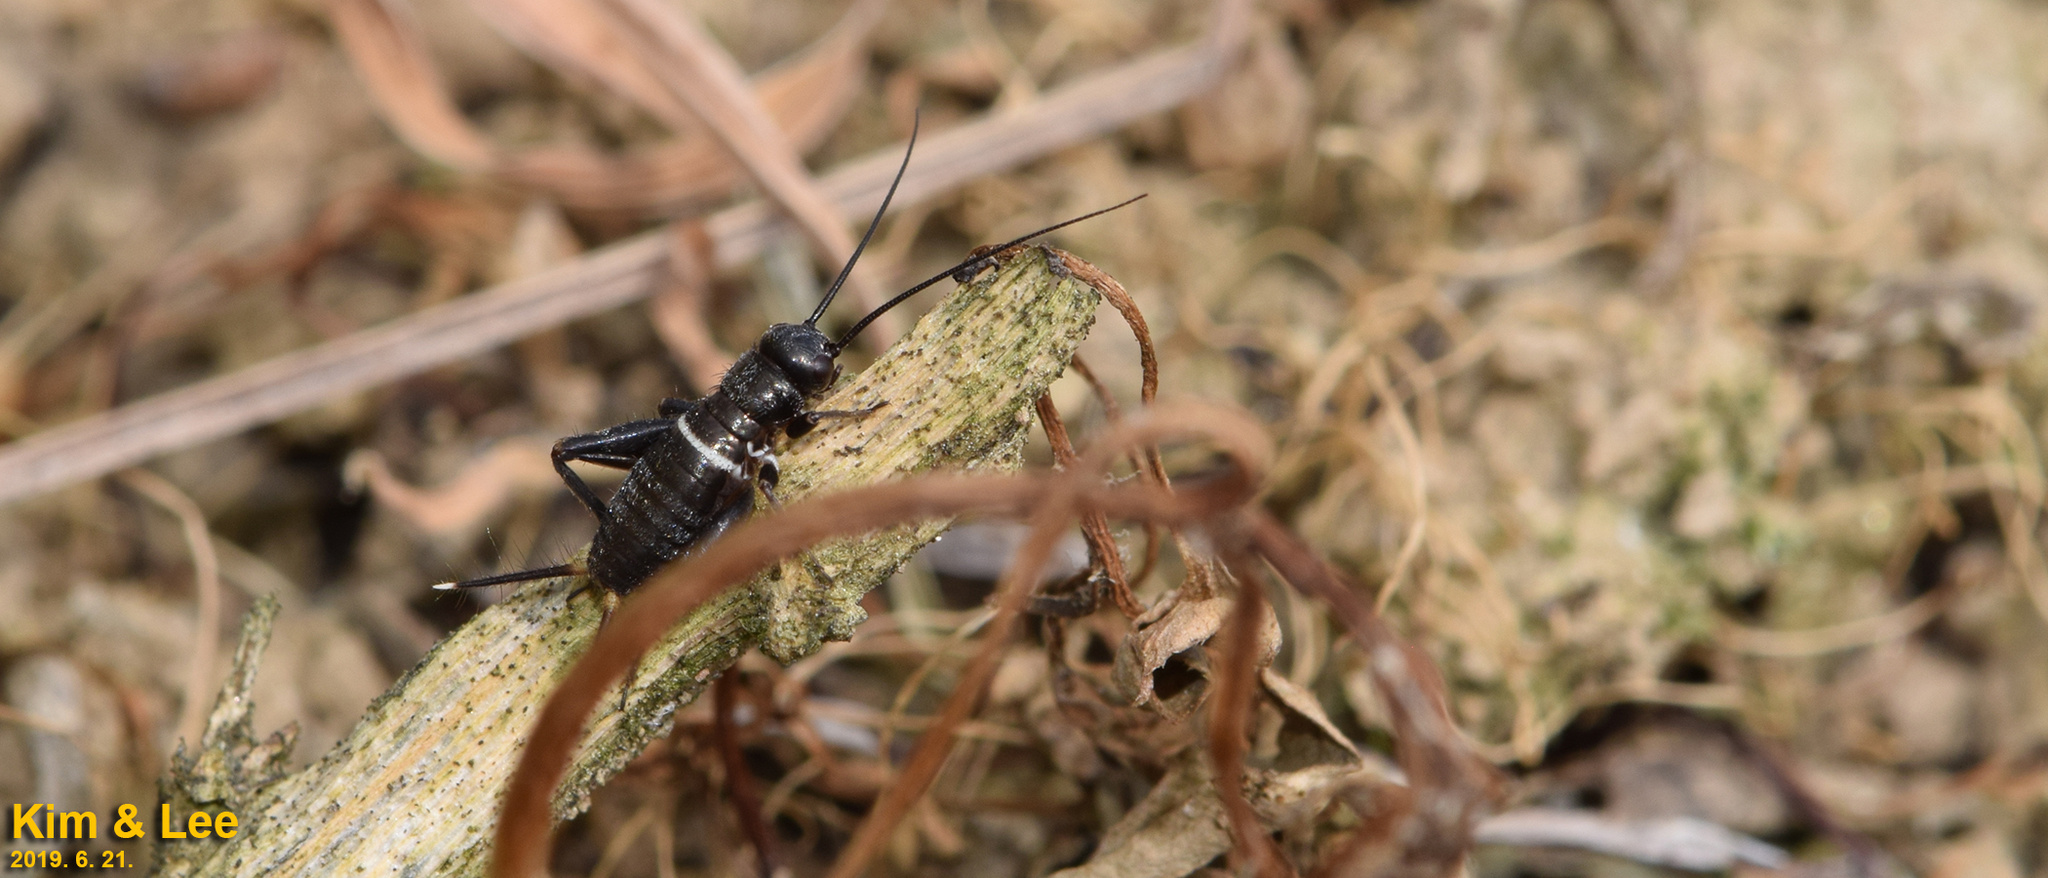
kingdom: Animalia
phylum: Arthropoda
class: Insecta
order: Orthoptera
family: Gryllidae
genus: Teleogryllus
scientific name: Teleogryllus emma
